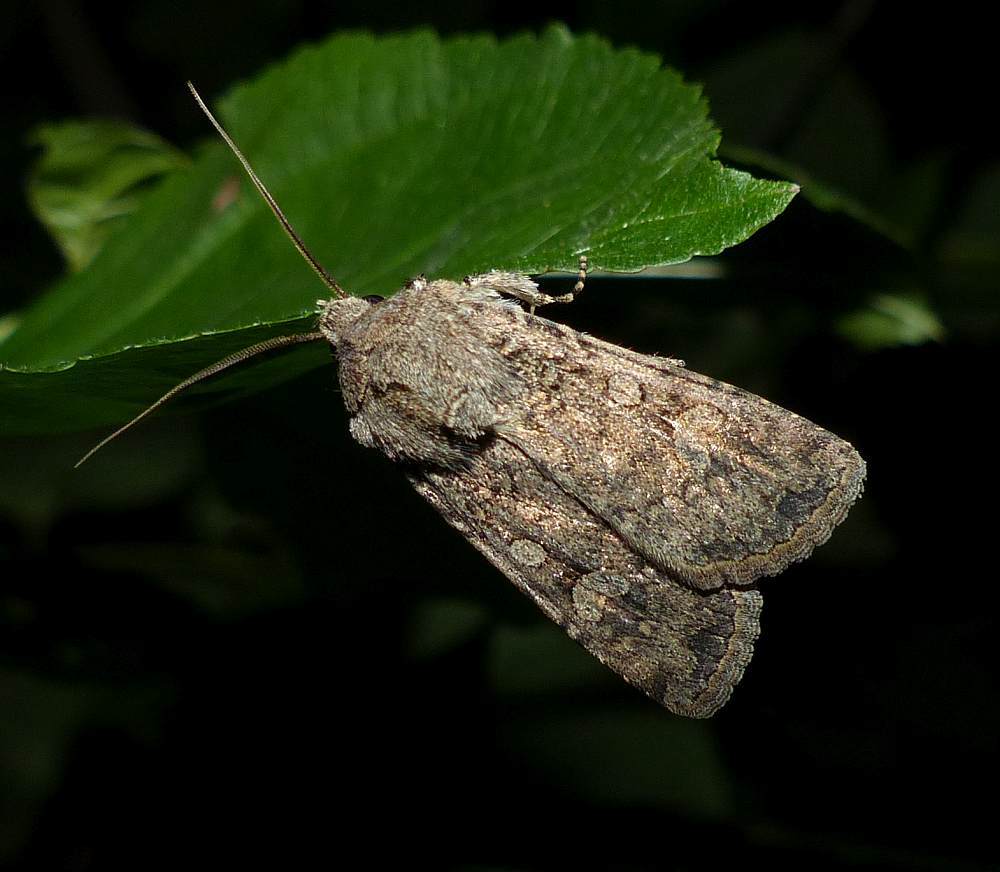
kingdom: Animalia
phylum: Arthropoda
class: Insecta
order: Lepidoptera
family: Noctuidae
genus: Euxoa
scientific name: Euxoa messoria
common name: Darksided cutworm
